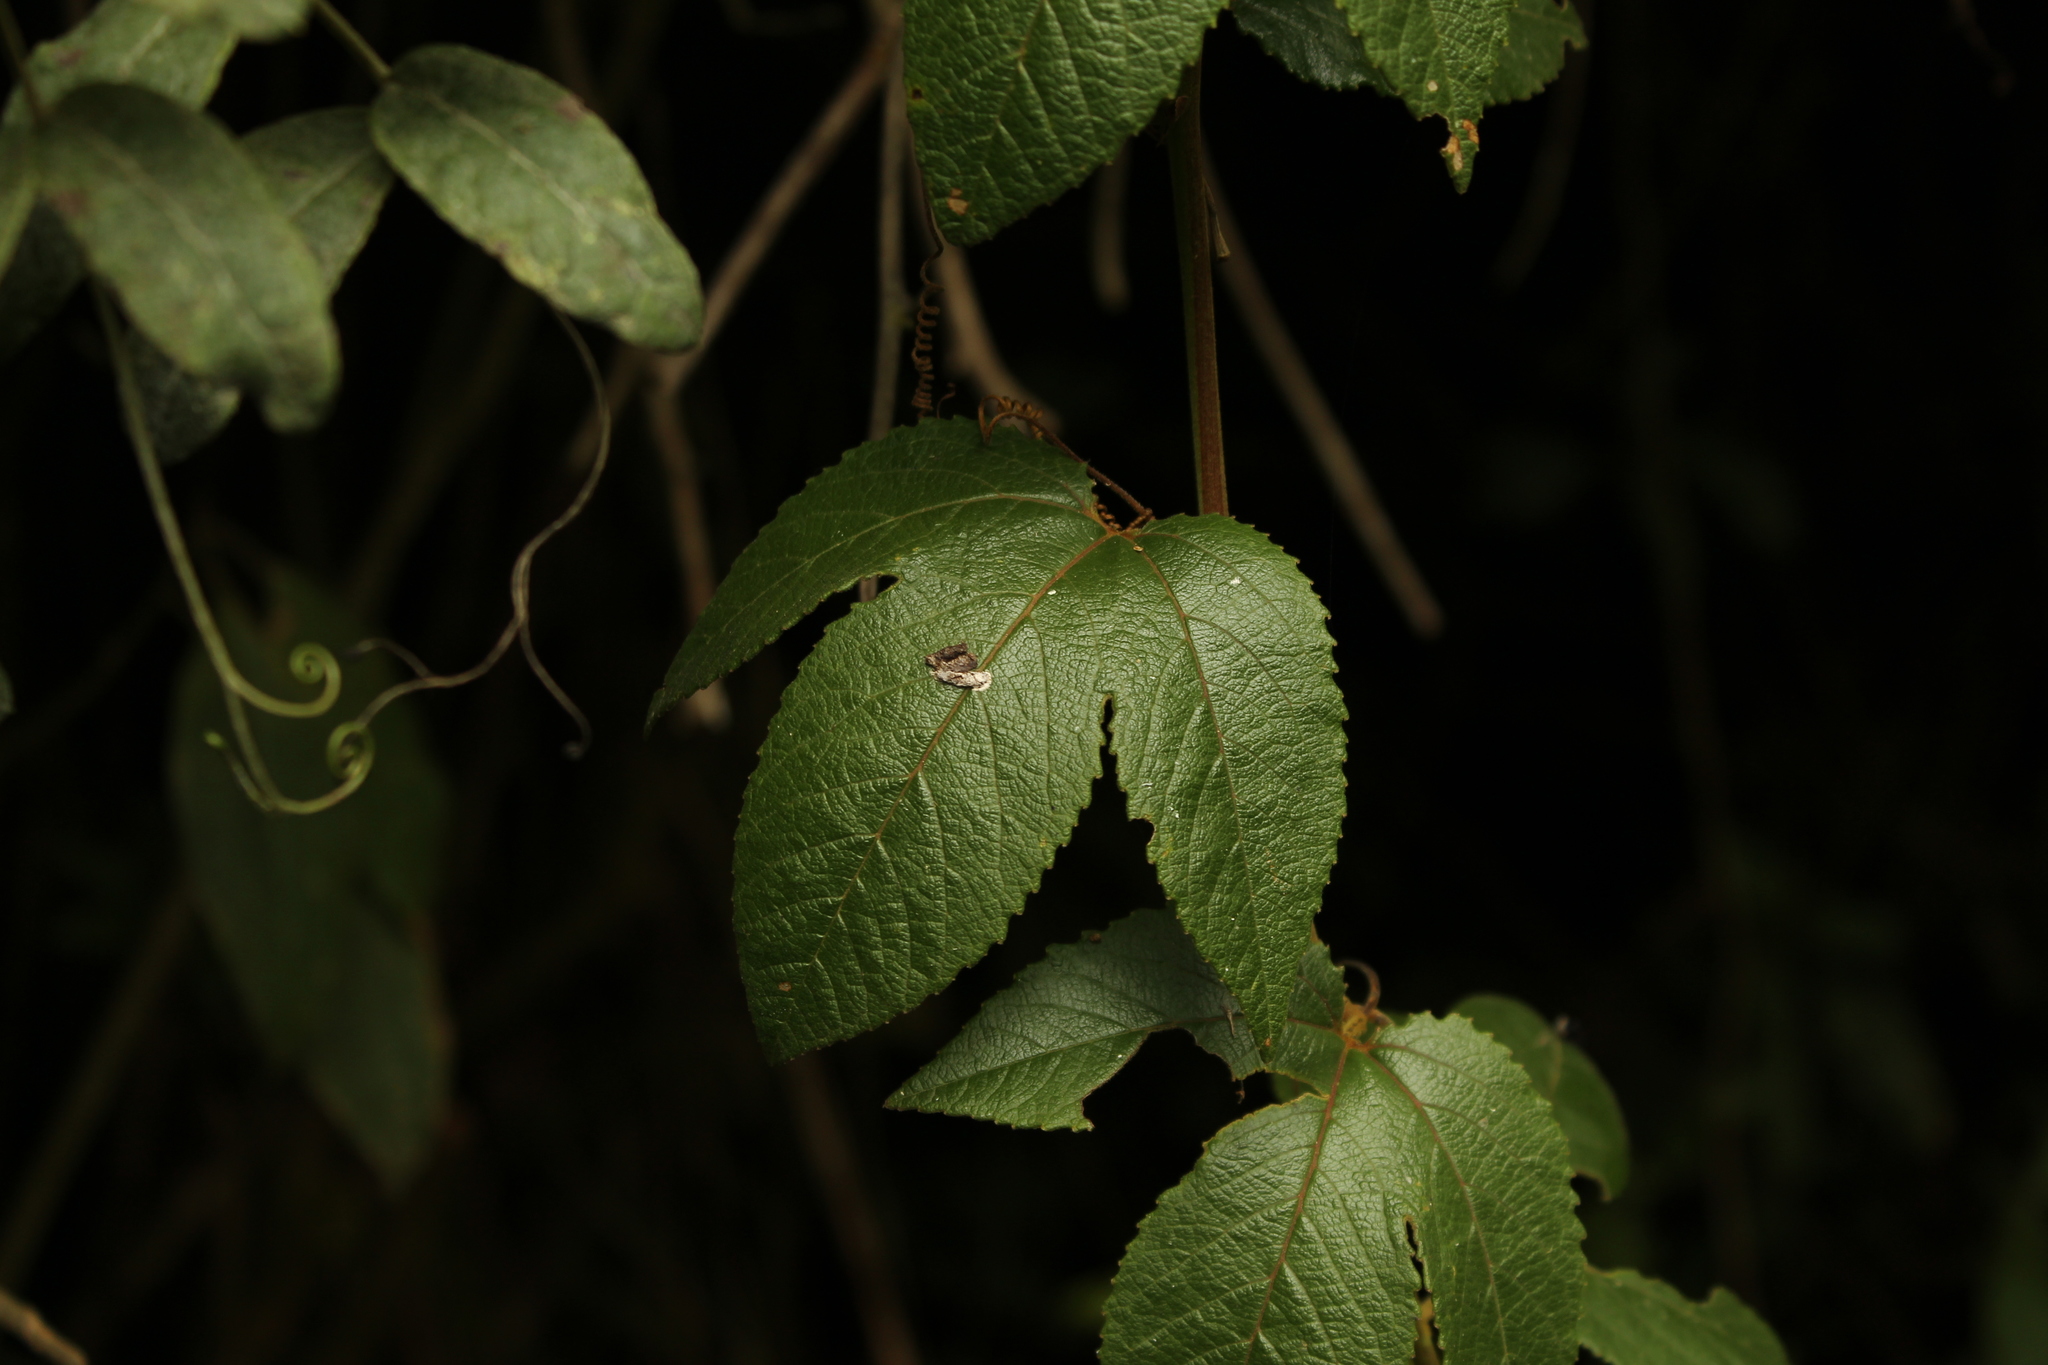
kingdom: Plantae
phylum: Tracheophyta
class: Magnoliopsida
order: Malpighiales
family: Passifloraceae
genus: Passiflora
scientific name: Passiflora tarminiana
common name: Banana poka
